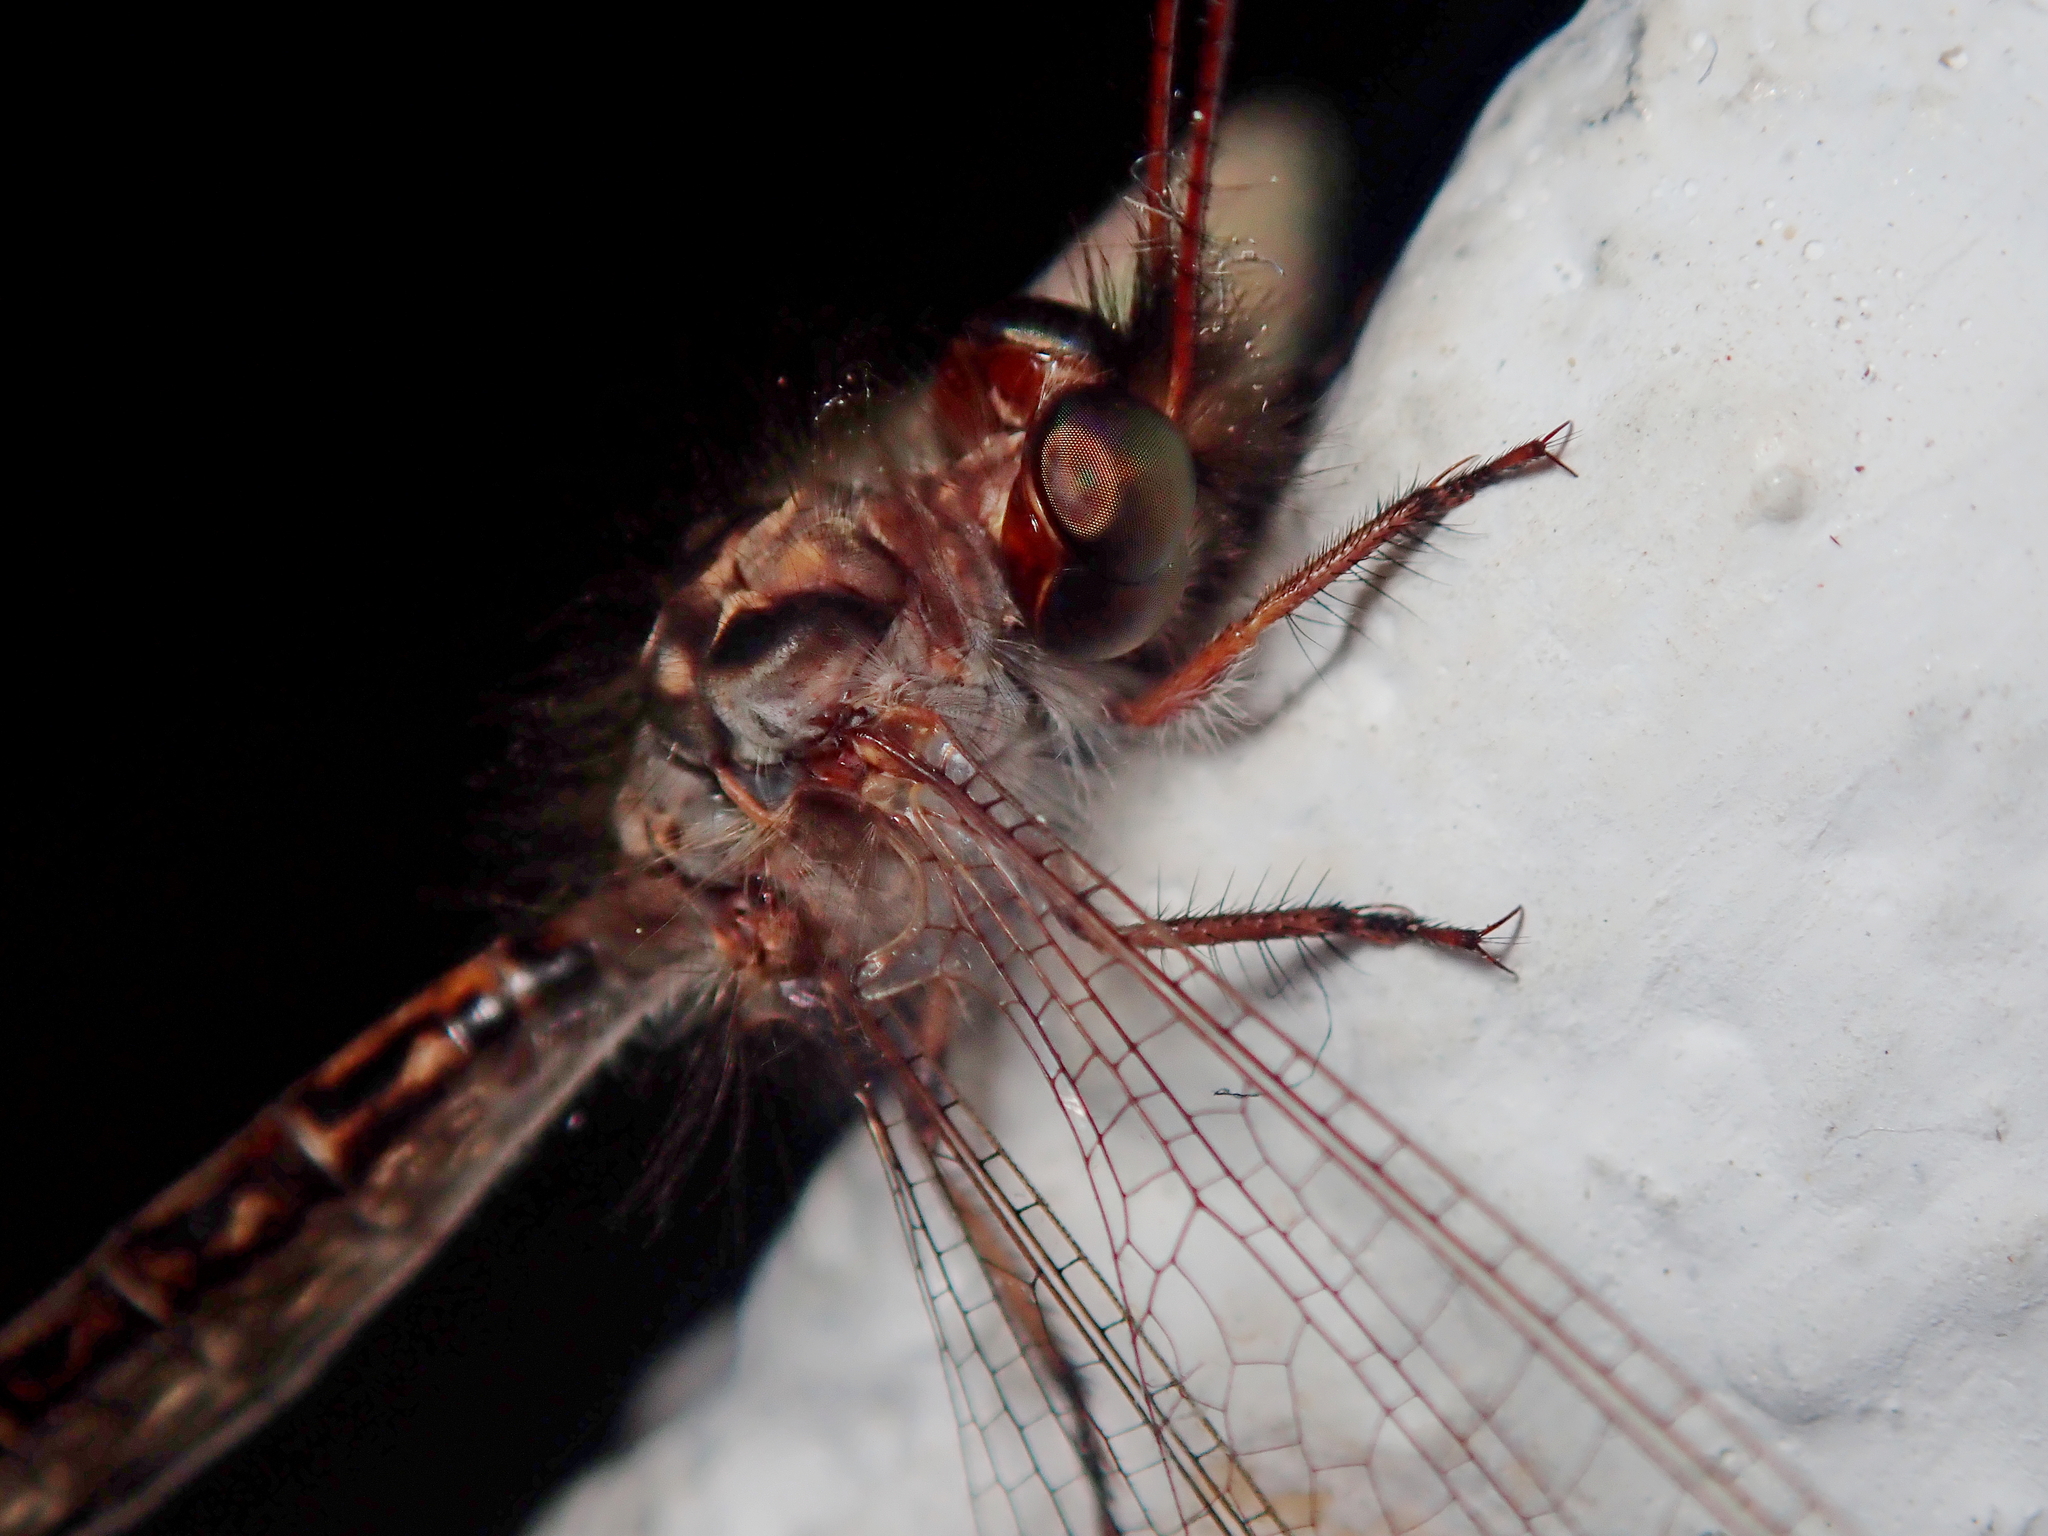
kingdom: Animalia
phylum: Arthropoda
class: Insecta
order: Neuroptera
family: Ascalaphidae
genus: Ascalorphne
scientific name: Ascalorphne impavida
